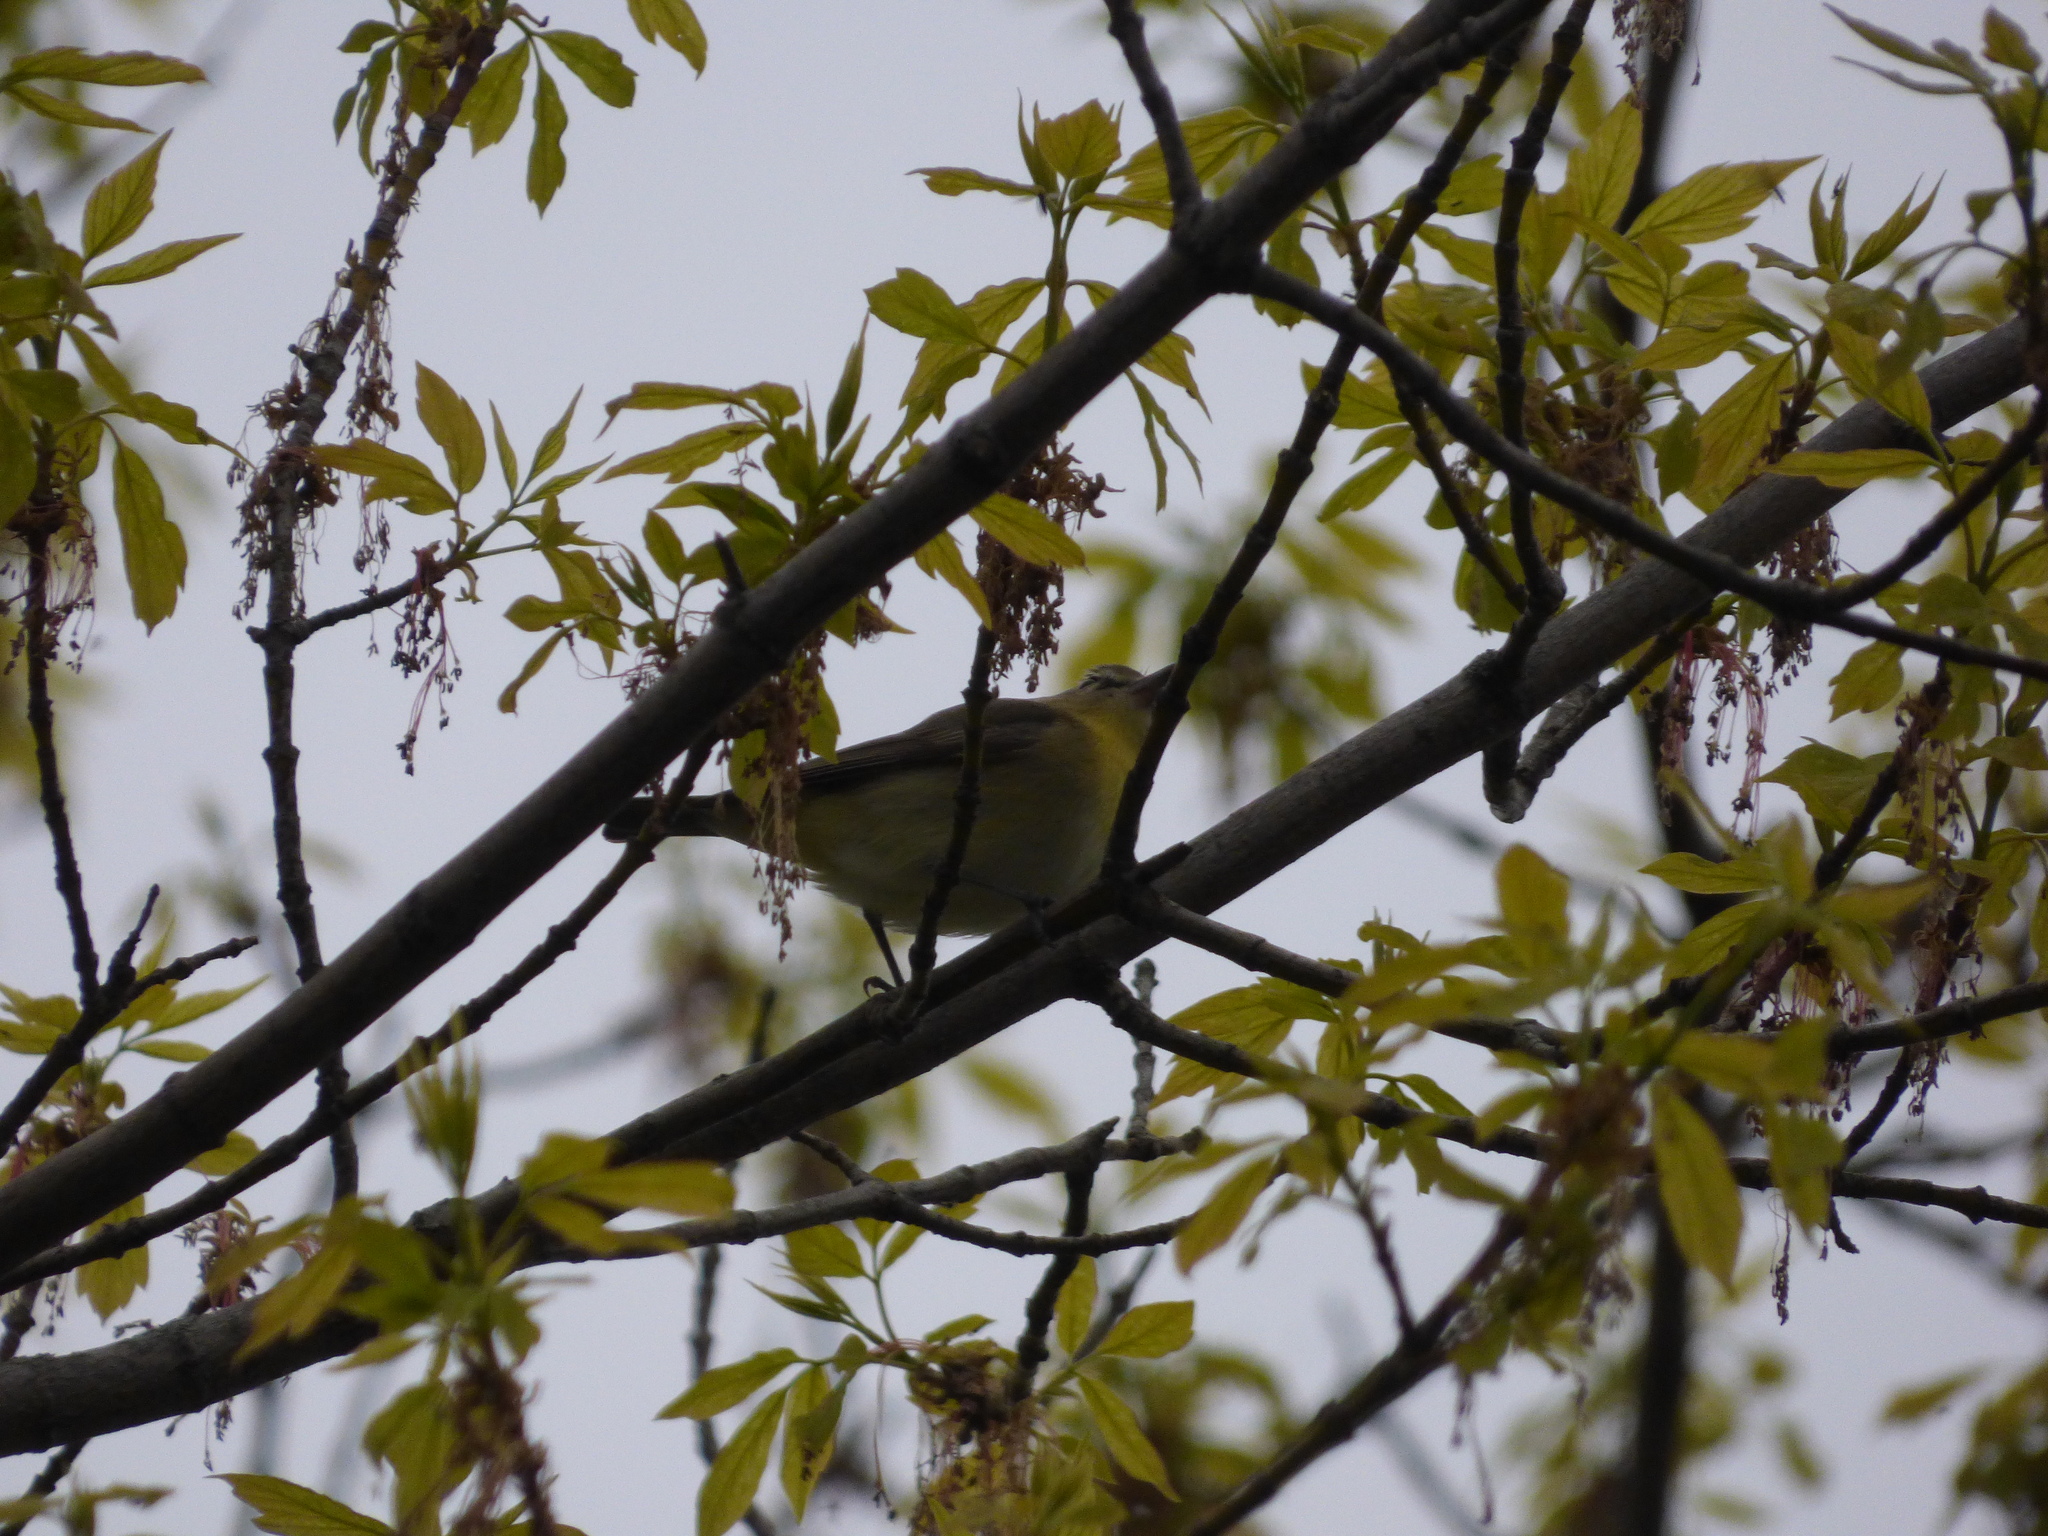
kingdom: Animalia
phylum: Chordata
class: Aves
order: Passeriformes
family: Vireonidae
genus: Vireo
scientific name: Vireo philadelphicus
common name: Philadelphia vireo
